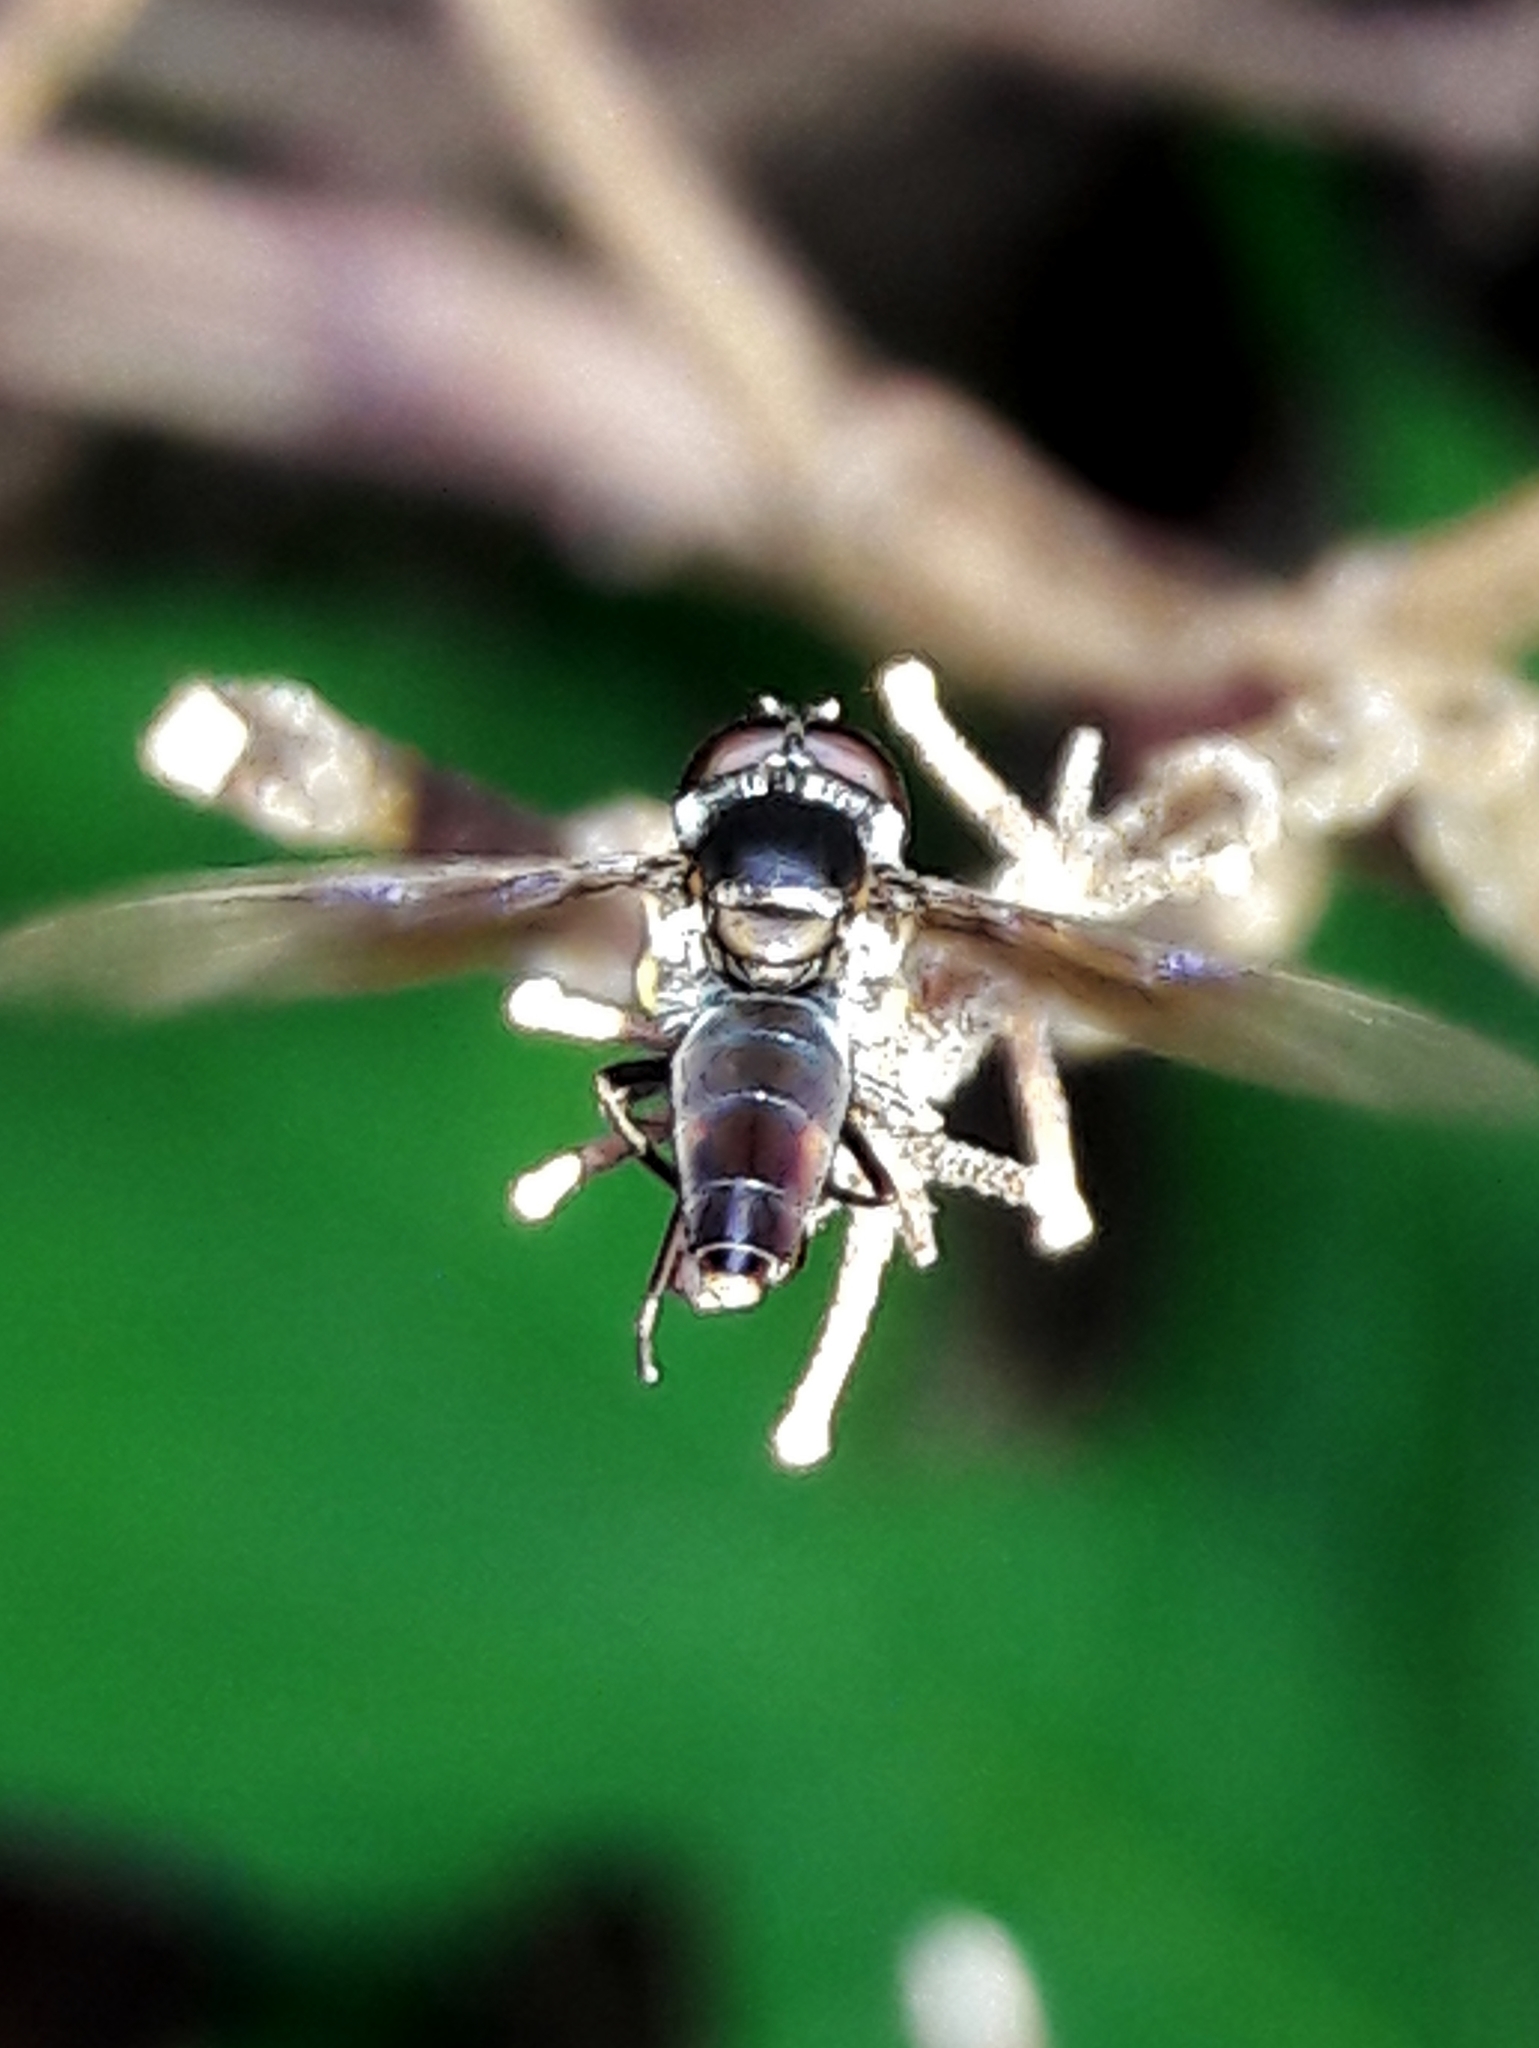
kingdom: Animalia
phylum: Arthropoda
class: Insecta
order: Diptera
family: Syrphidae
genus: Ocyptamus
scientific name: Ocyptamus antiphates
